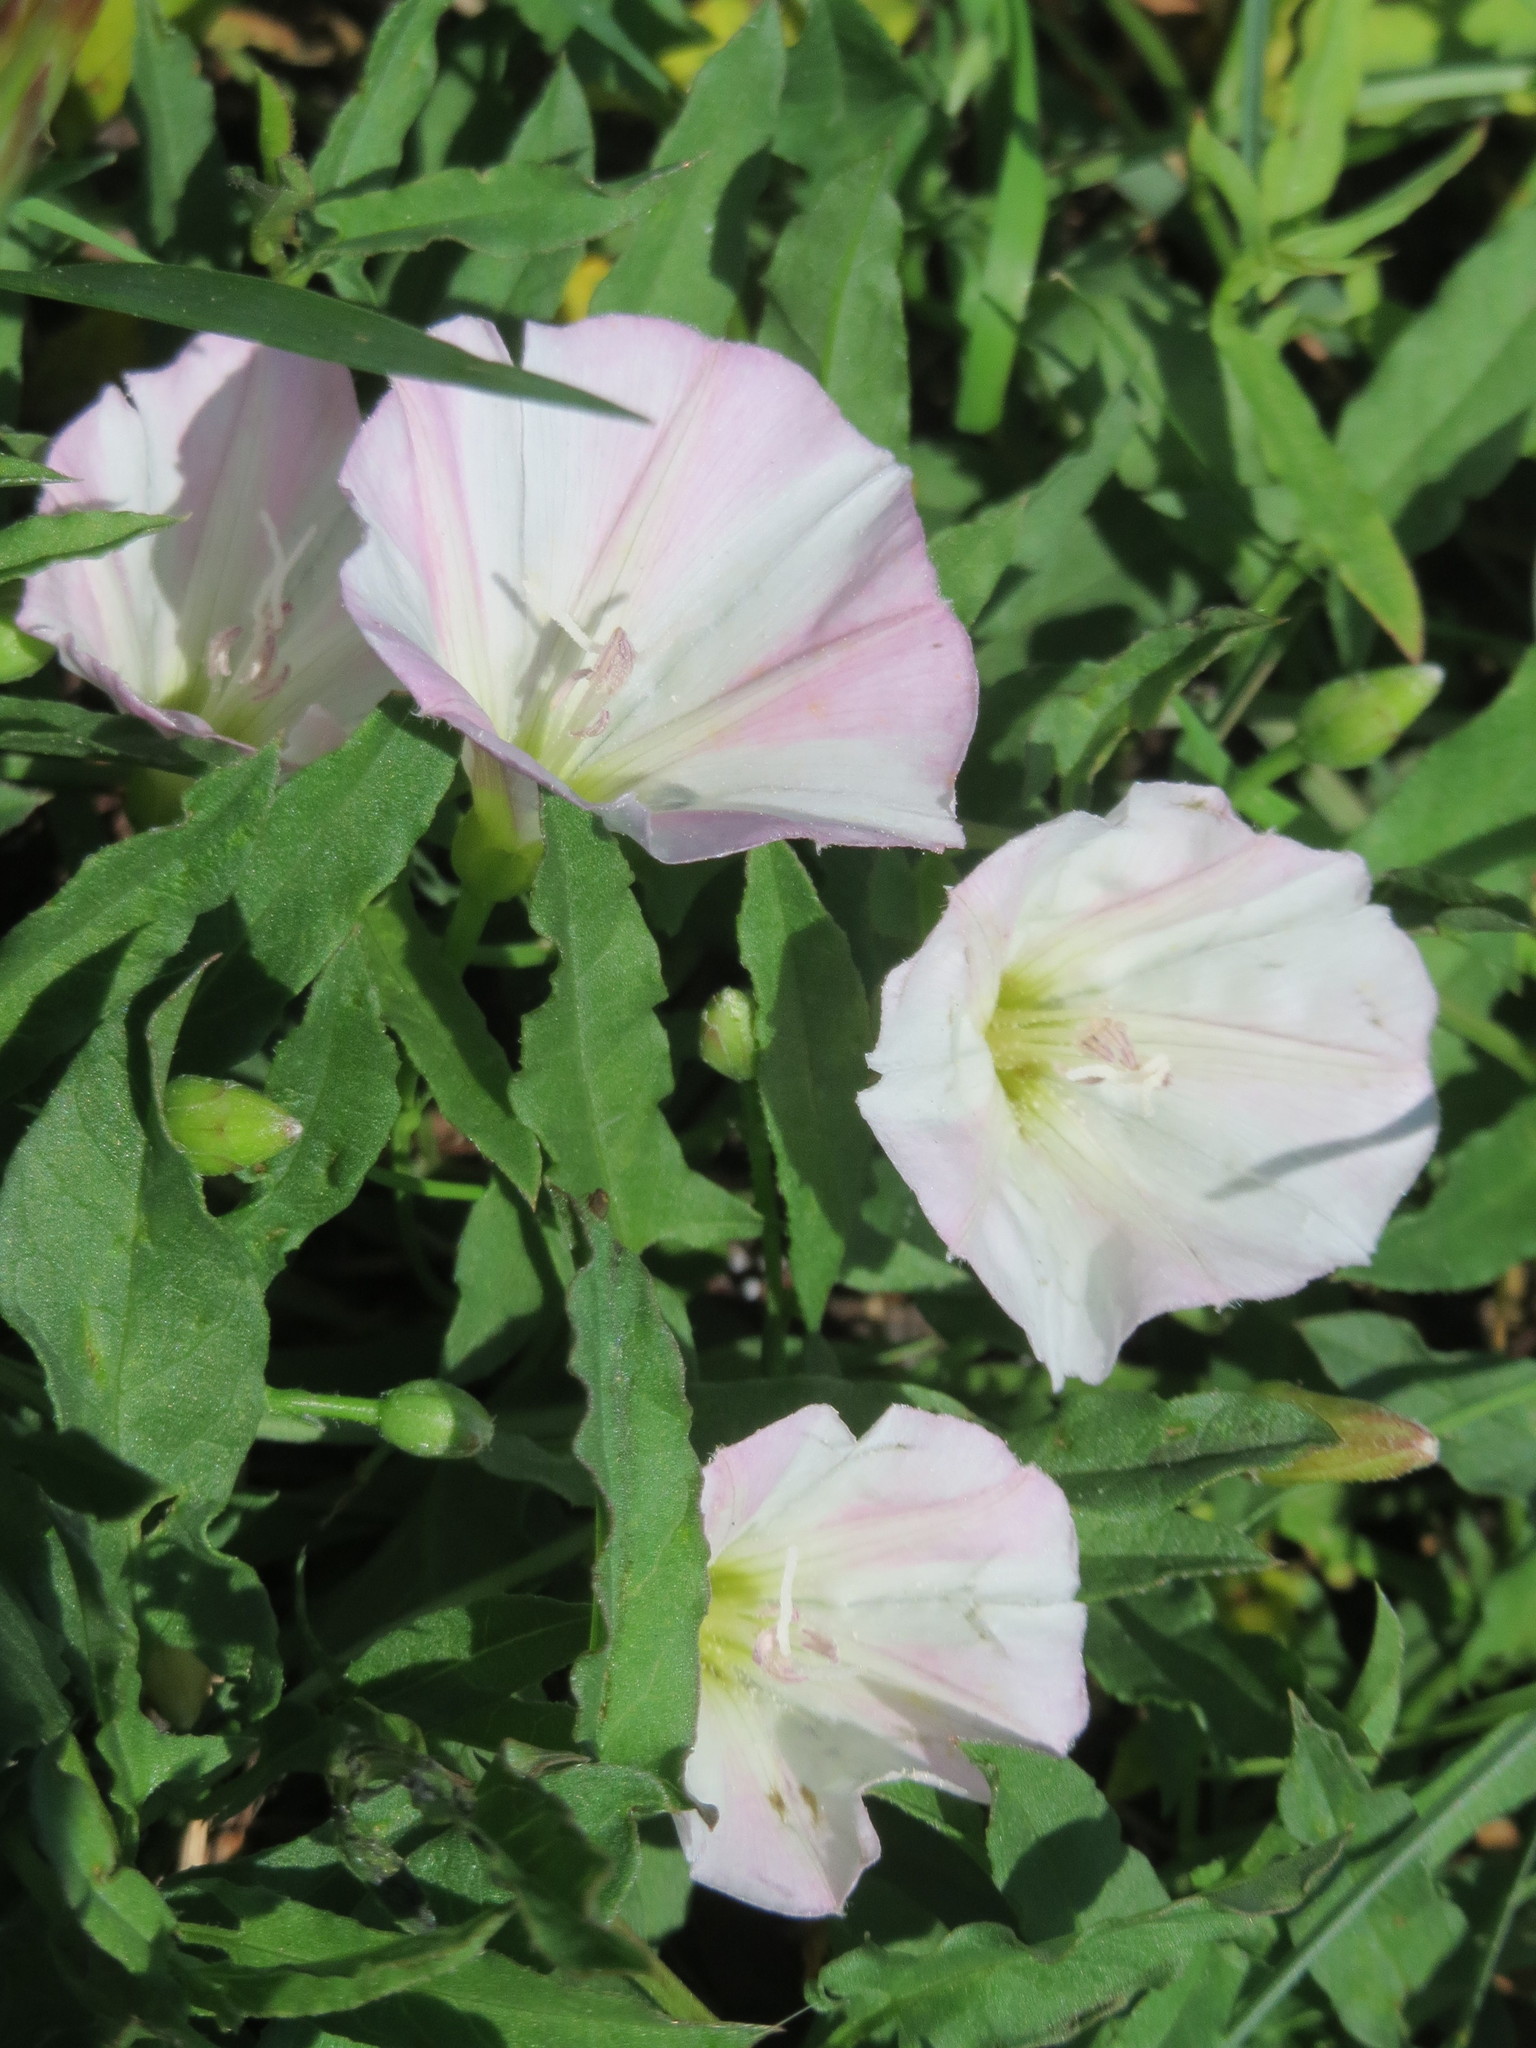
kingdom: Plantae
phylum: Tracheophyta
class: Magnoliopsida
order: Solanales
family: Convolvulaceae
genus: Convolvulus
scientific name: Convolvulus arvensis
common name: Field bindweed
